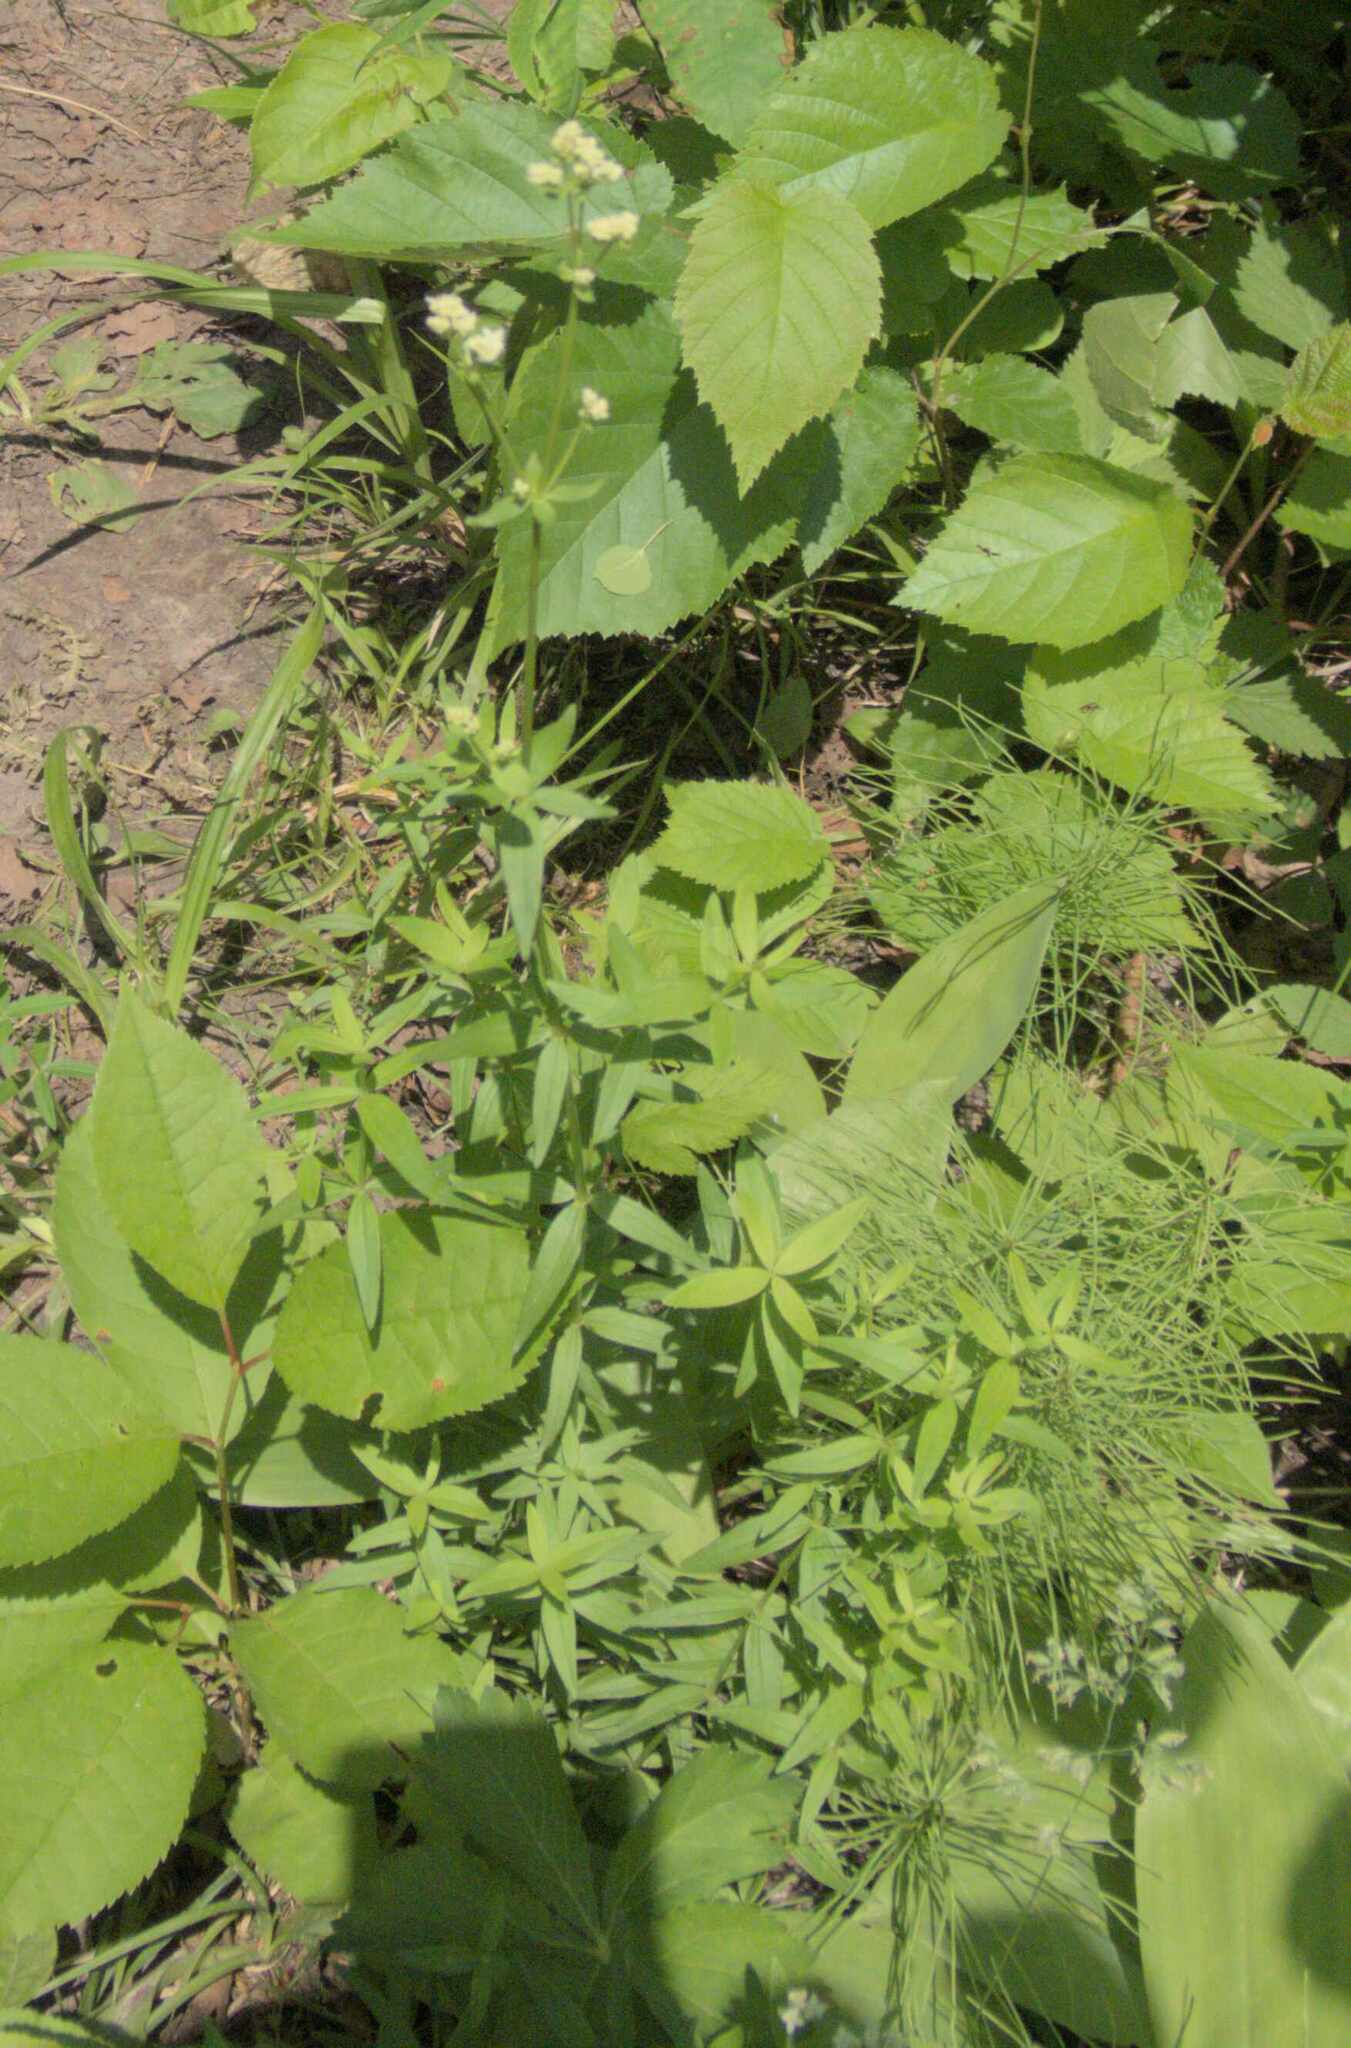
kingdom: Plantae
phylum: Tracheophyta
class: Magnoliopsida
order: Gentianales
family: Rubiaceae
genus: Galium
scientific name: Galium boreale
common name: Northern bedstraw
